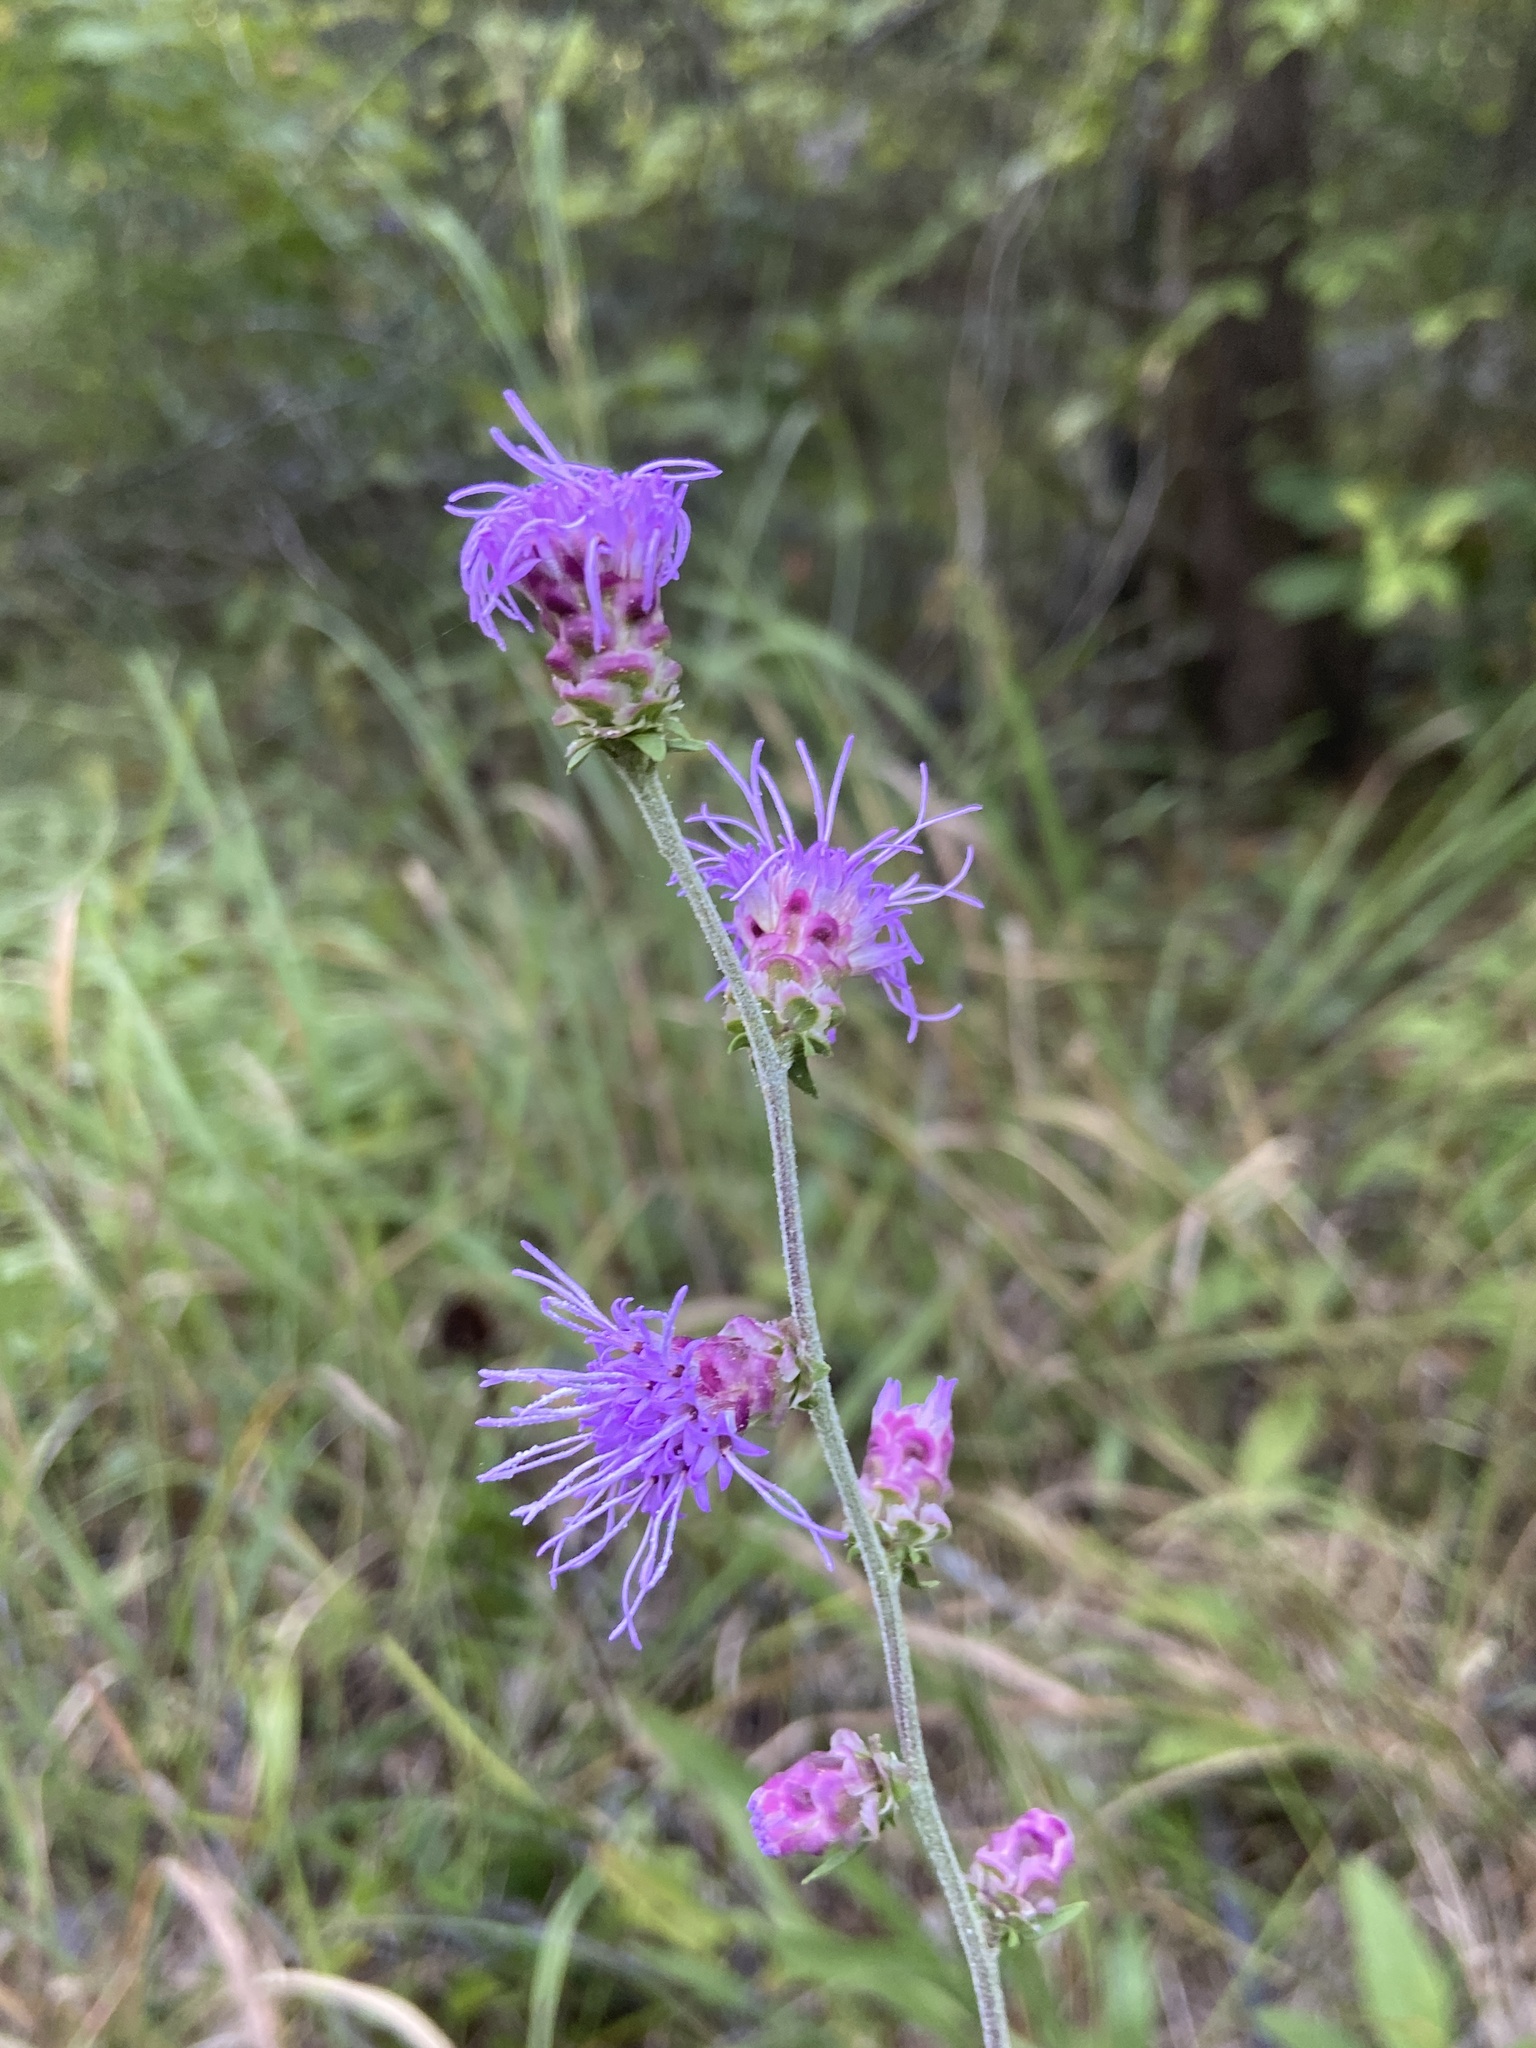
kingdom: Plantae
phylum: Tracheophyta
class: Magnoliopsida
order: Asterales
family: Asteraceae
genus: Liatris
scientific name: Liatris aspera
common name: Lacerate blazing-star
